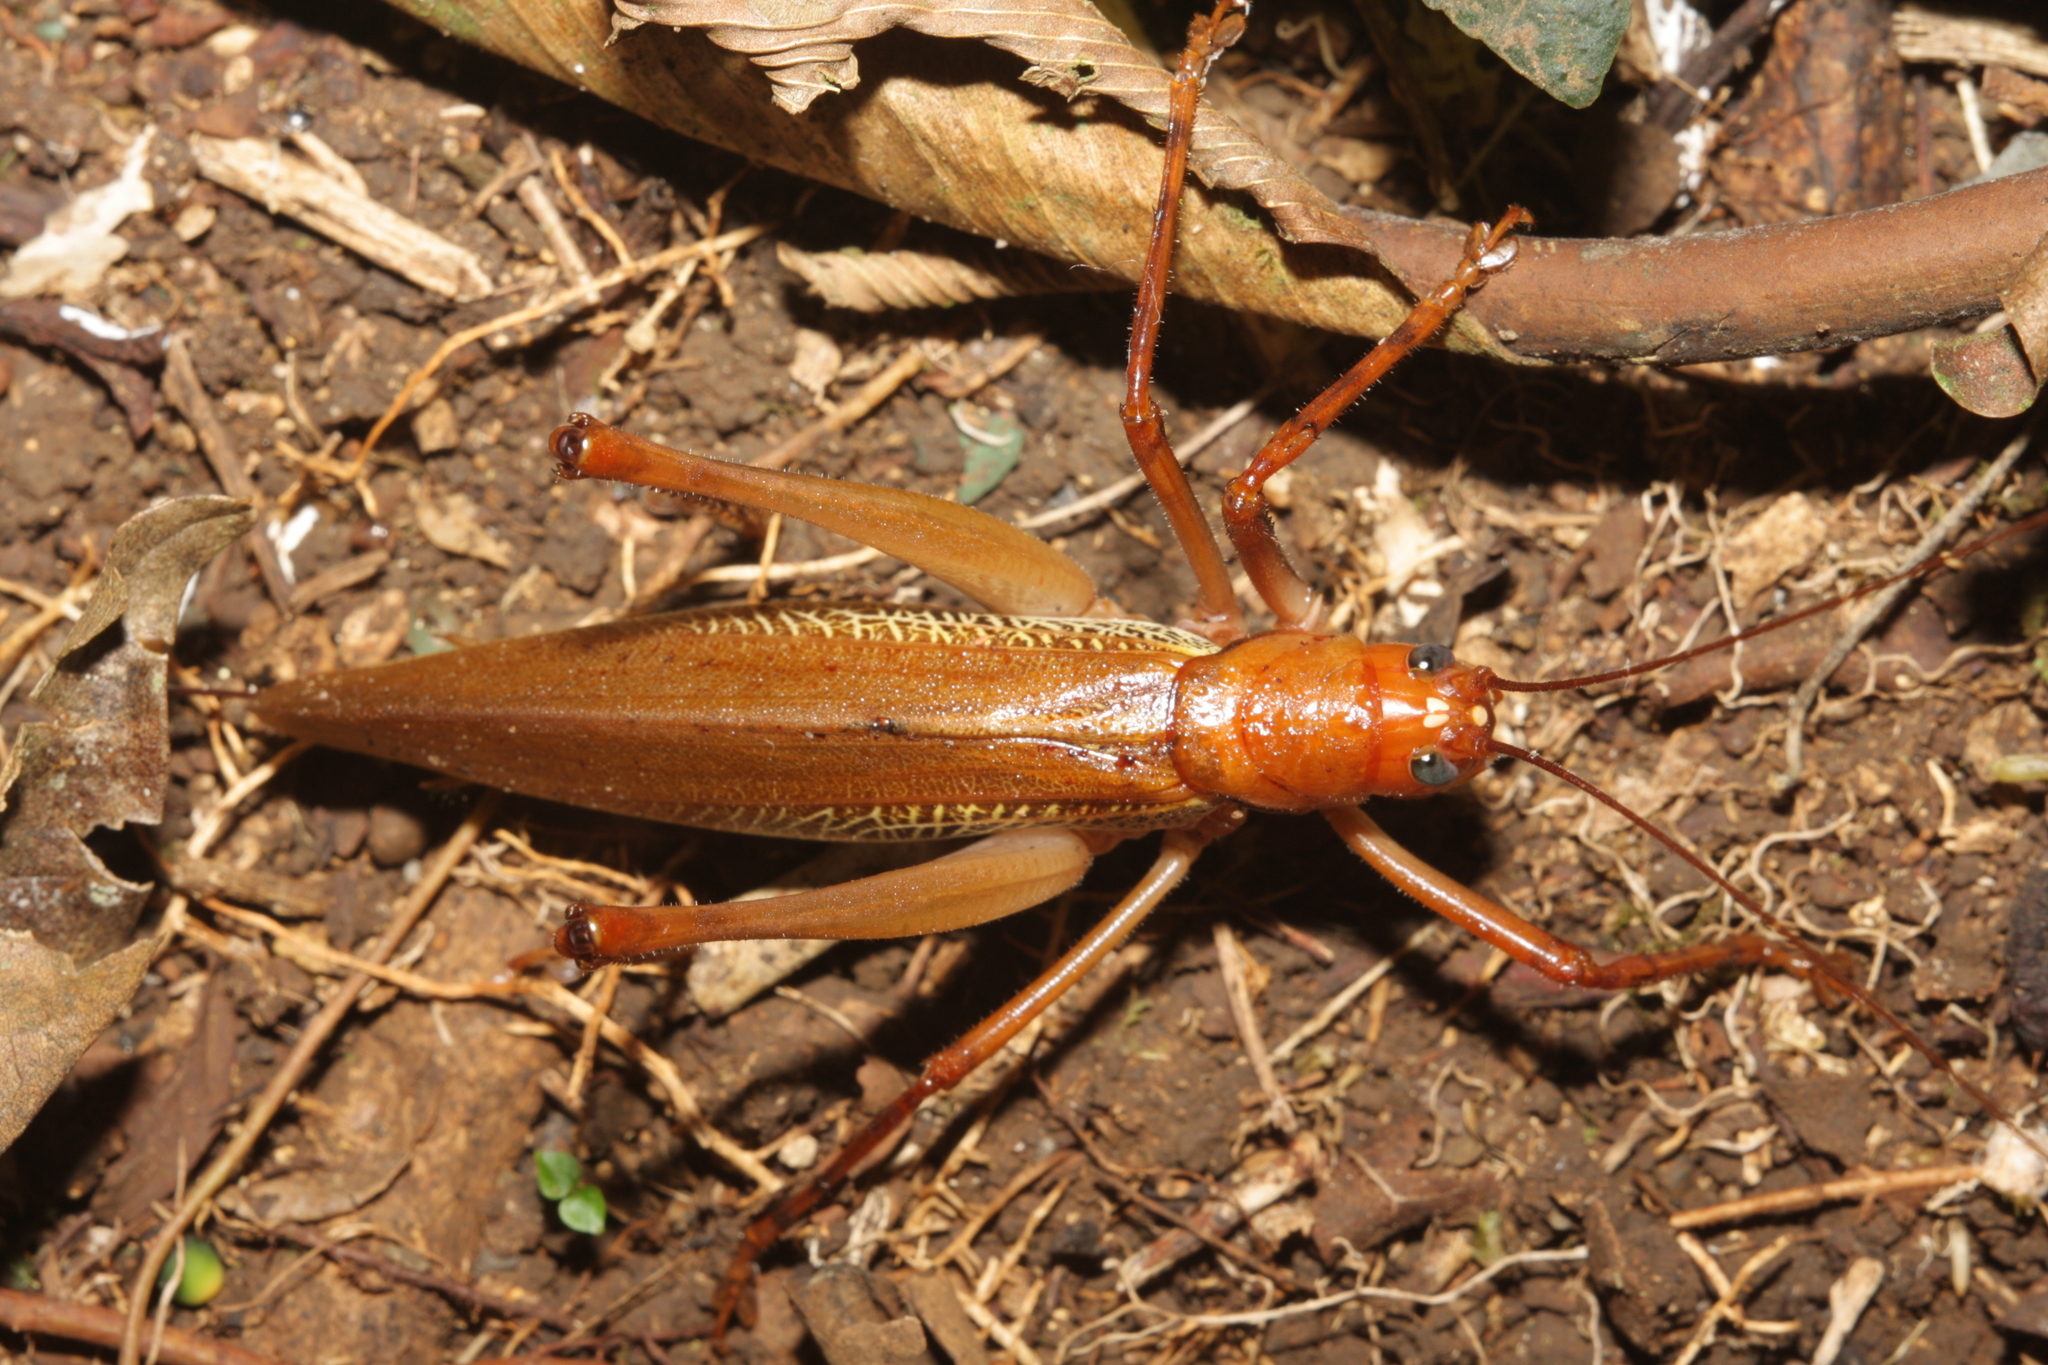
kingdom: Animalia
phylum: Arthropoda
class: Insecta
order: Orthoptera
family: Tettigoniidae
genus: Ischnomela
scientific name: Ischnomela pulchripennis
